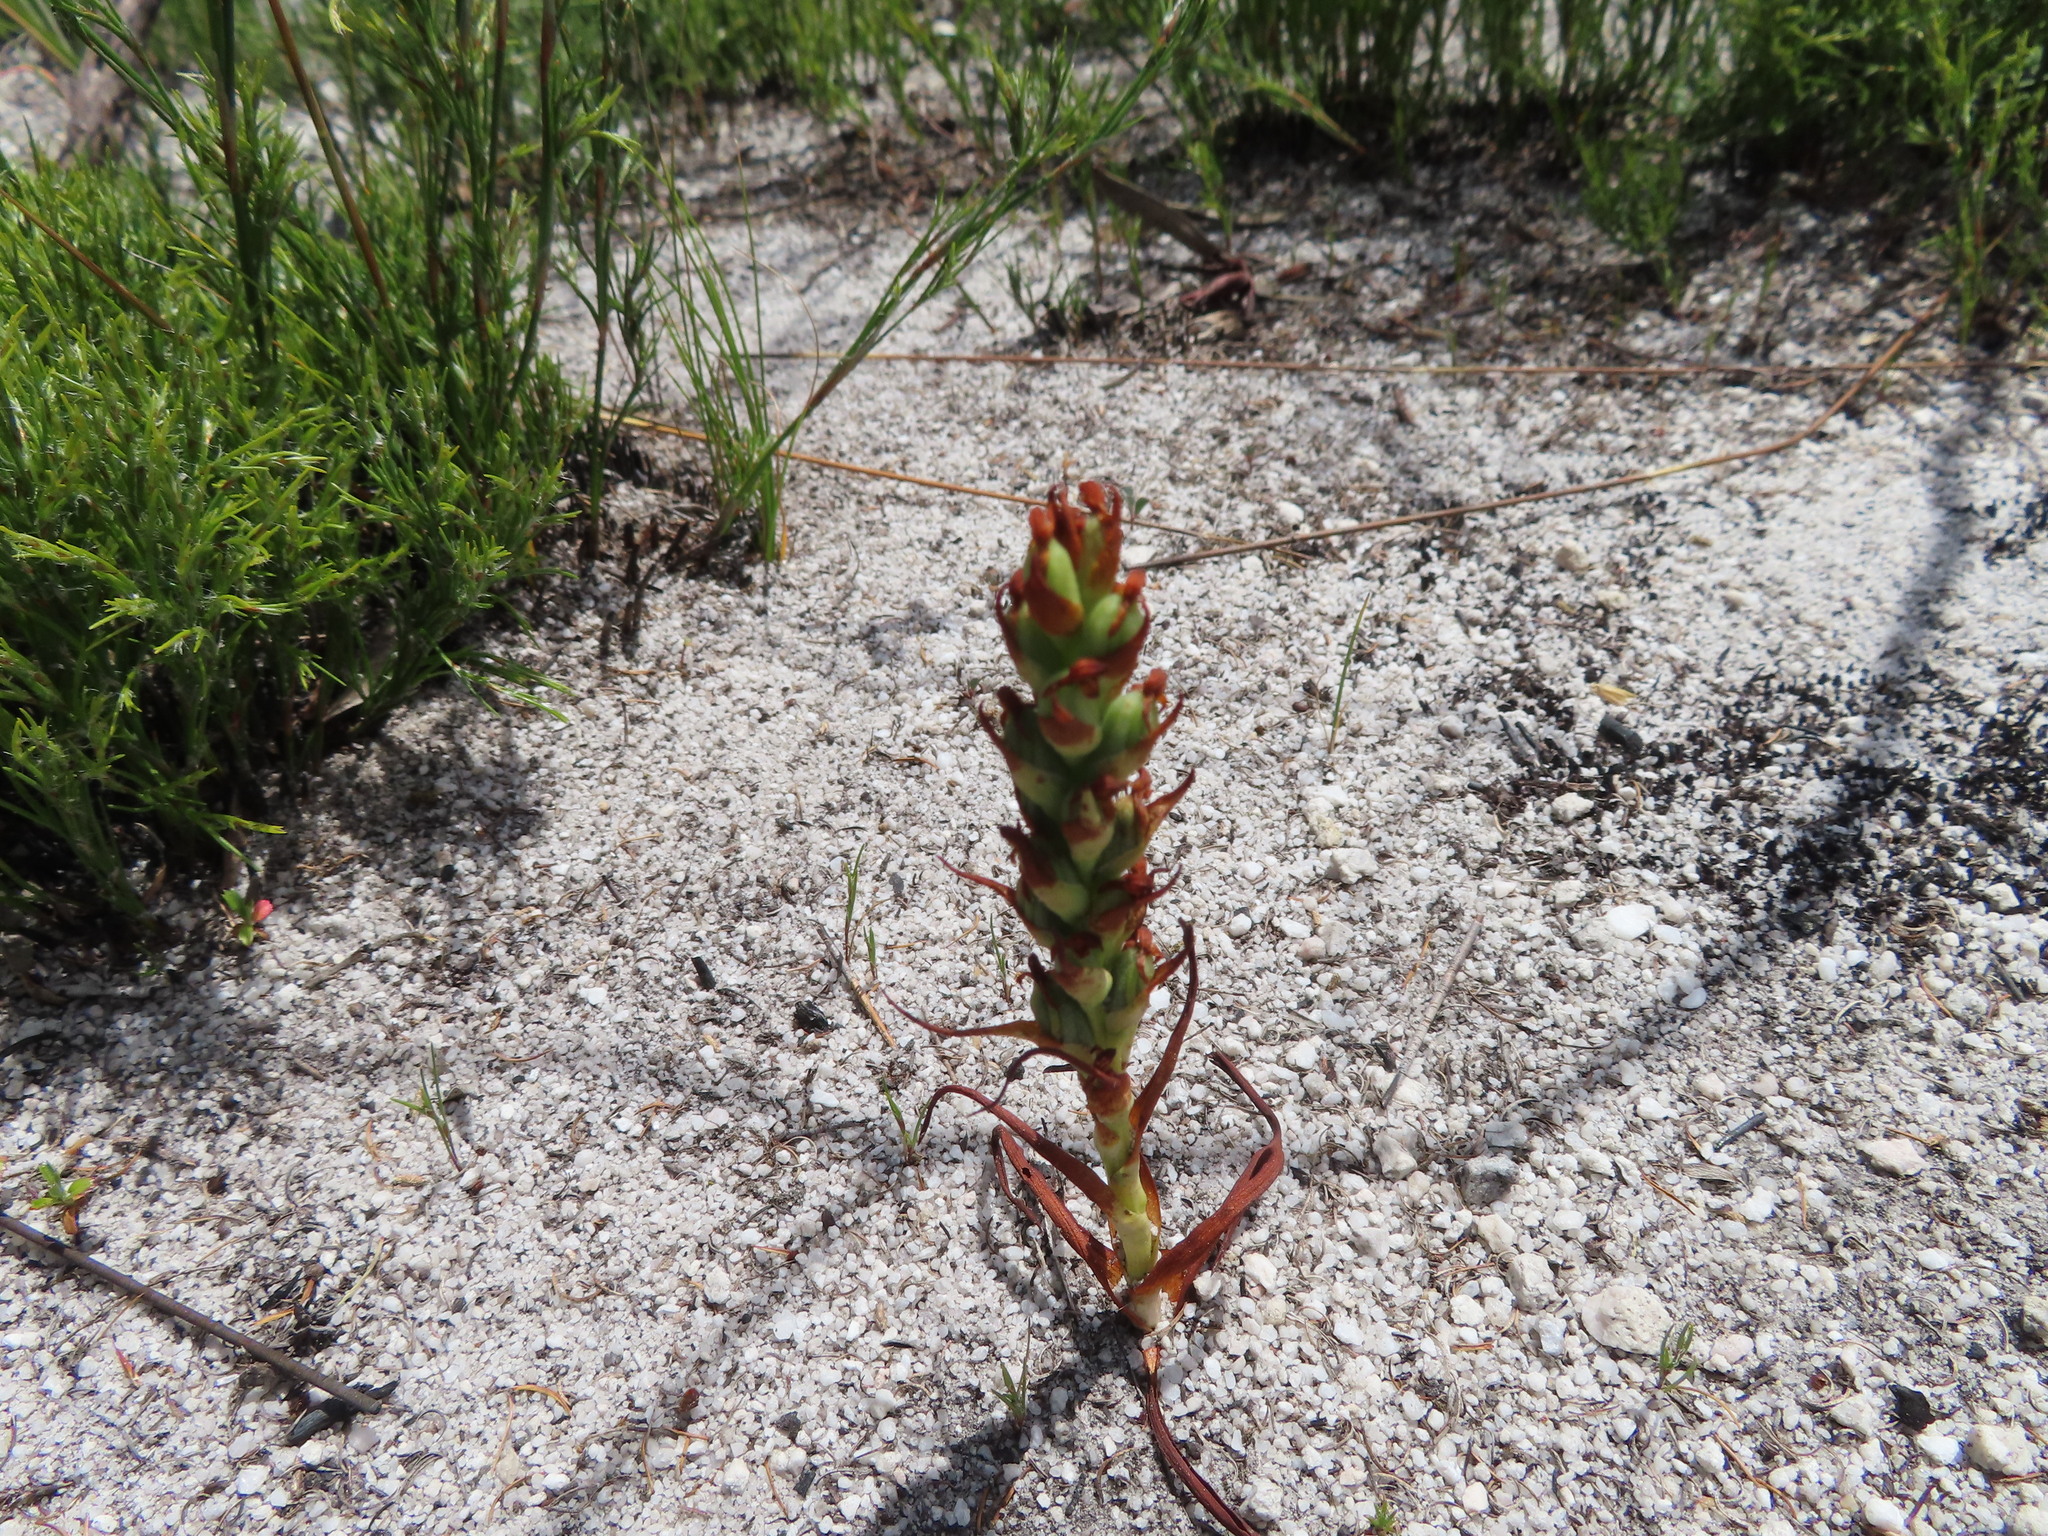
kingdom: Plantae
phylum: Tracheophyta
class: Liliopsida
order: Asparagales
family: Orchidaceae
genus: Disa
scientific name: Disa bracteata
